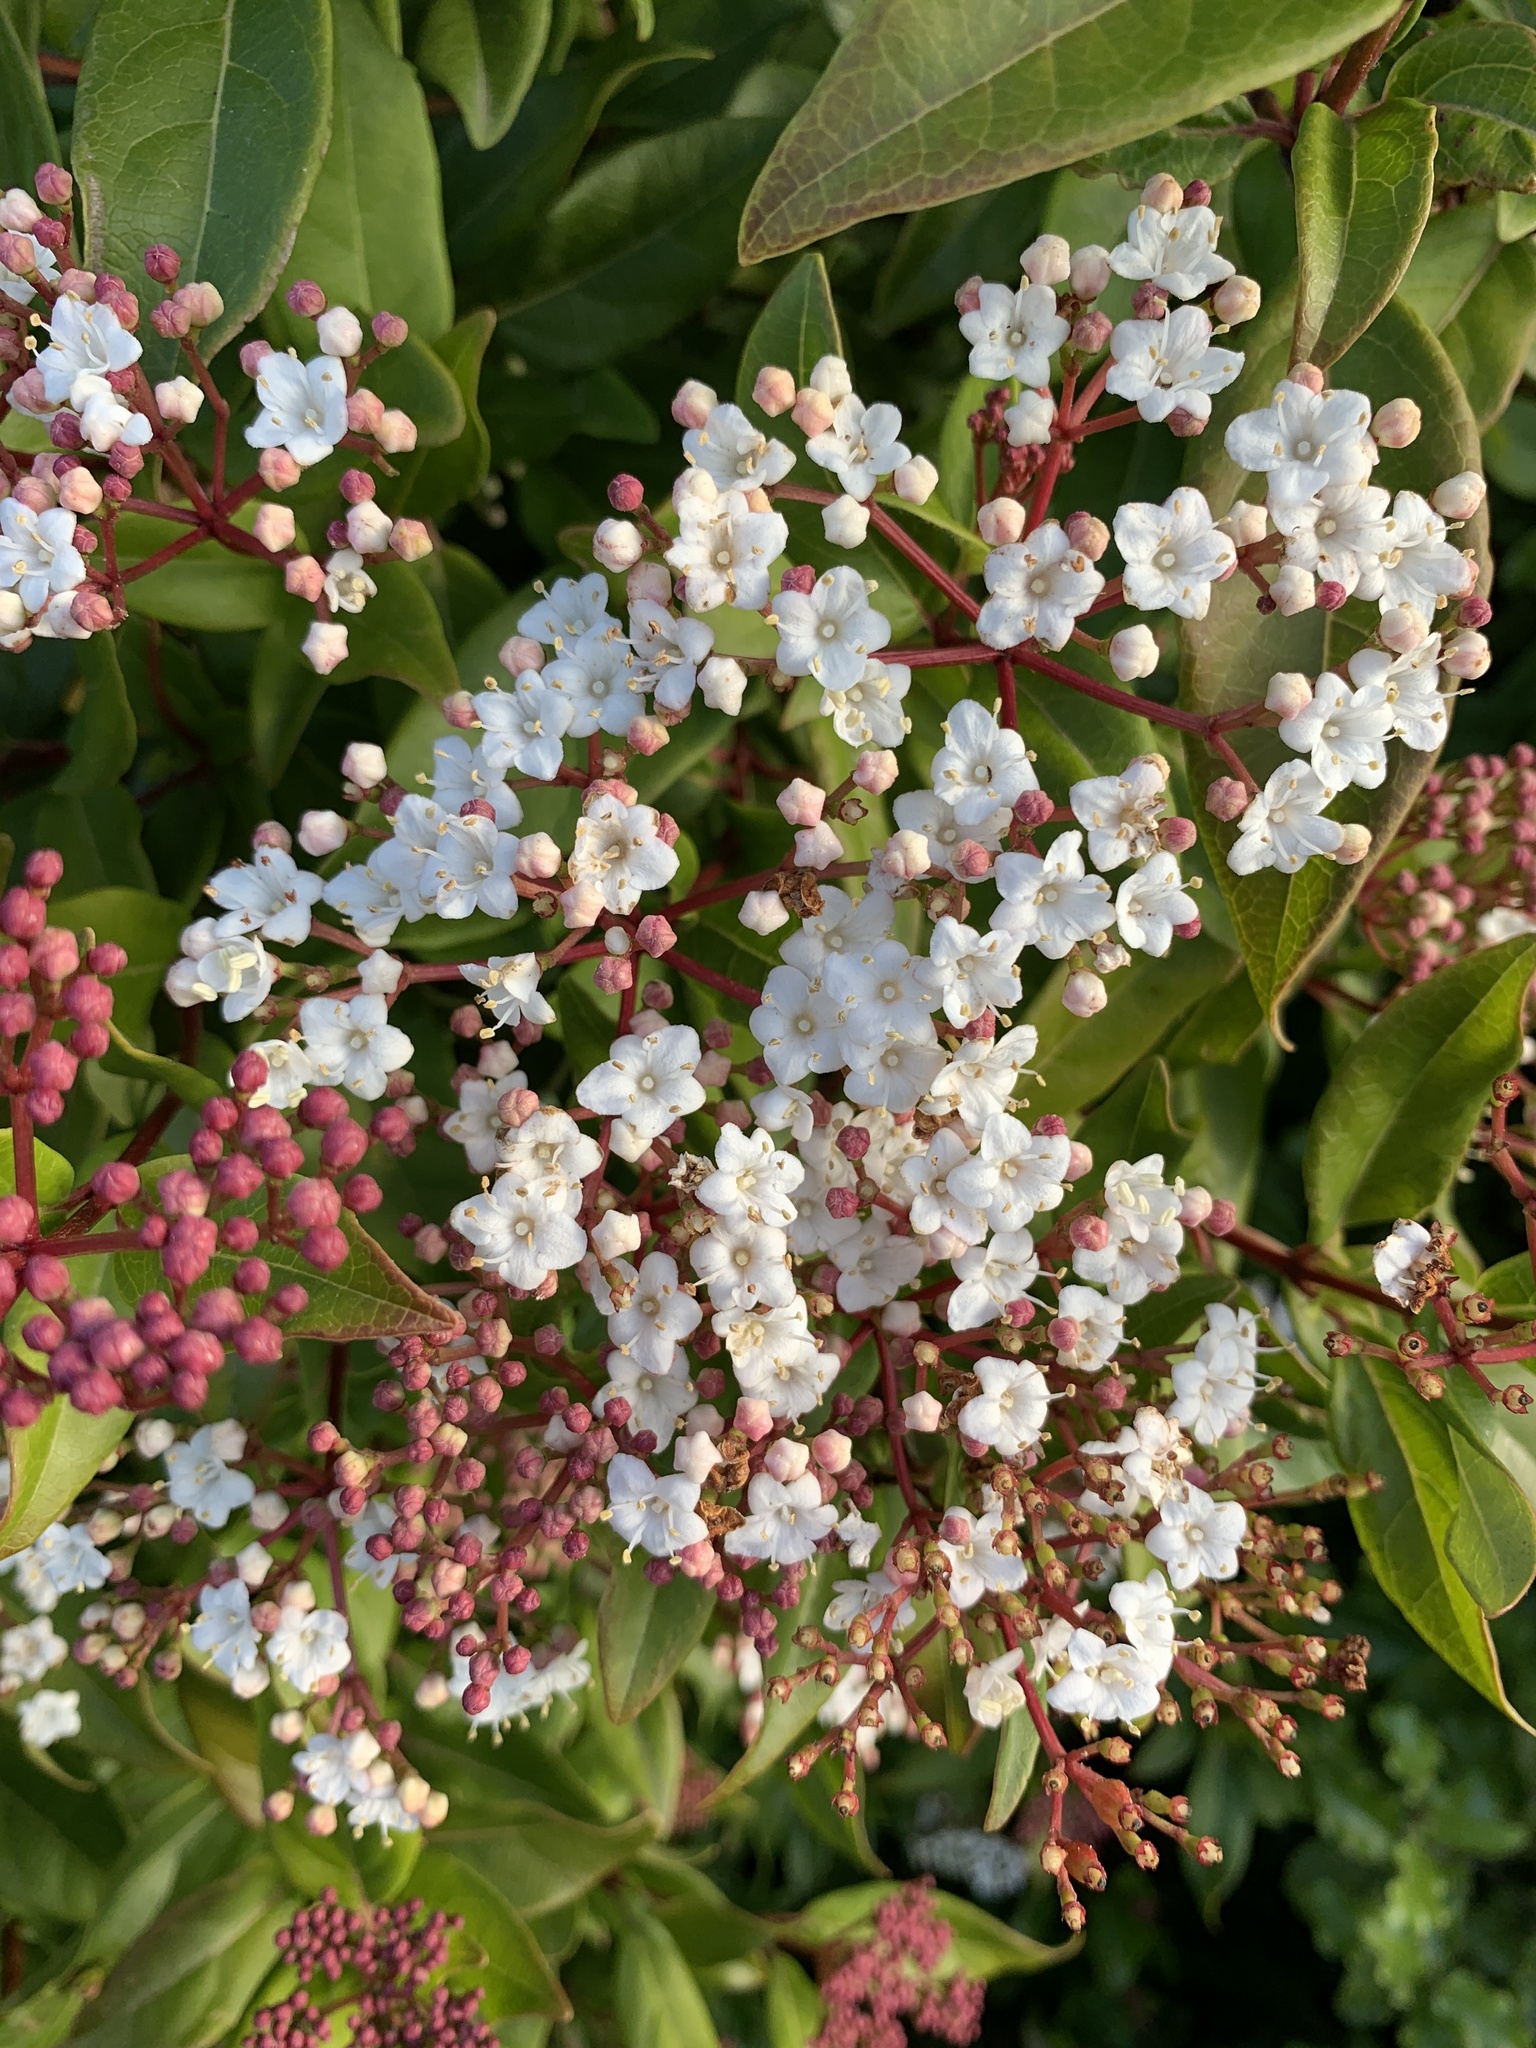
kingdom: Plantae
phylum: Tracheophyta
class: Magnoliopsida
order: Dipsacales
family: Viburnaceae
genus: Viburnum
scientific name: Viburnum tinus
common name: Laurustinus
